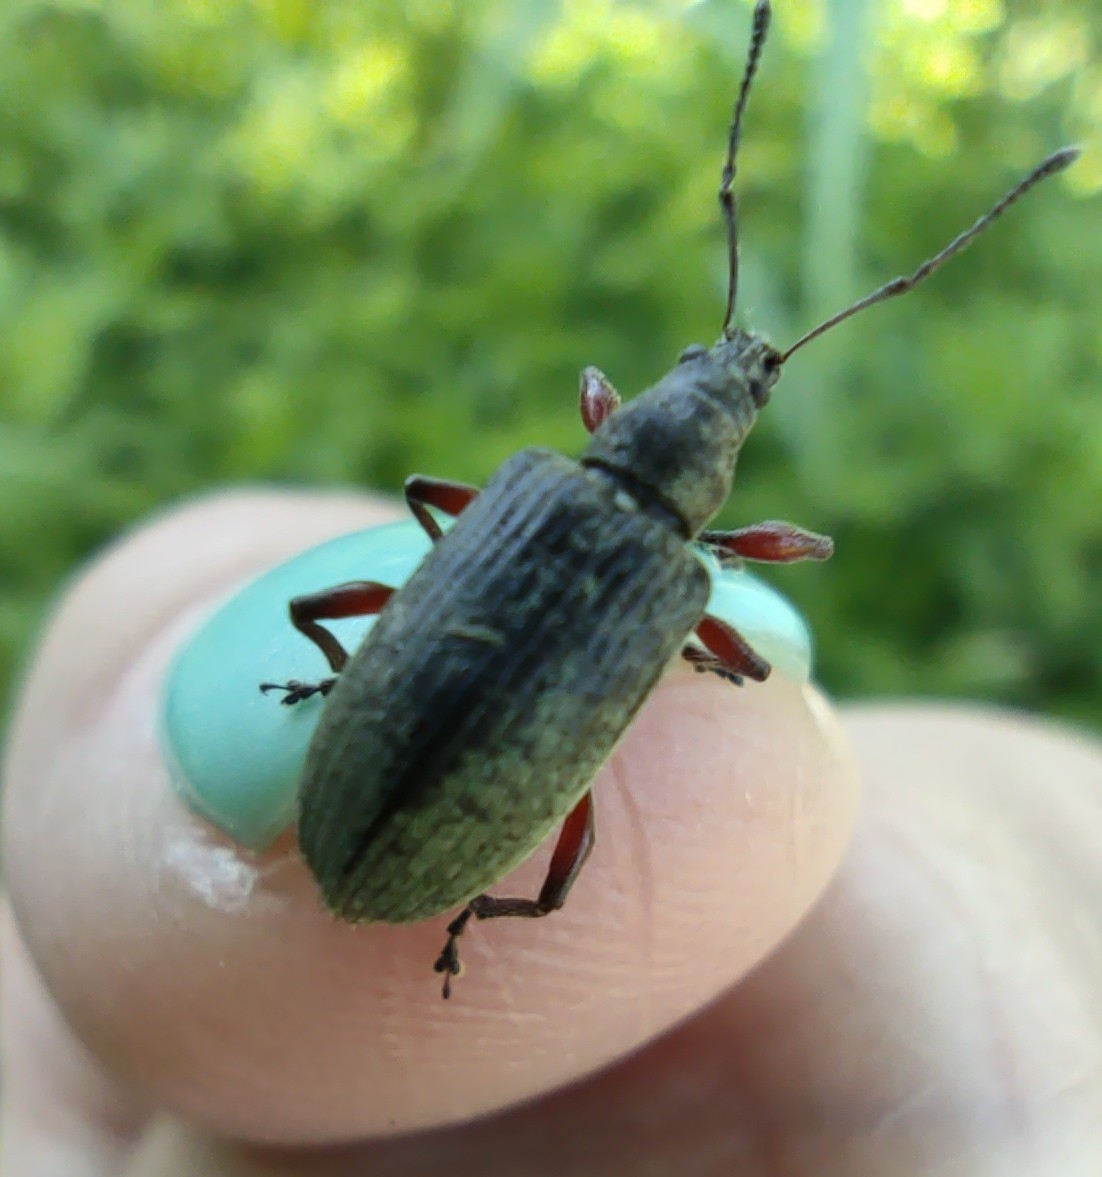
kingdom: Animalia
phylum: Arthropoda
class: Insecta
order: Coleoptera
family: Curculionidae
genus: Phyllobius
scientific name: Phyllobius glaucus
